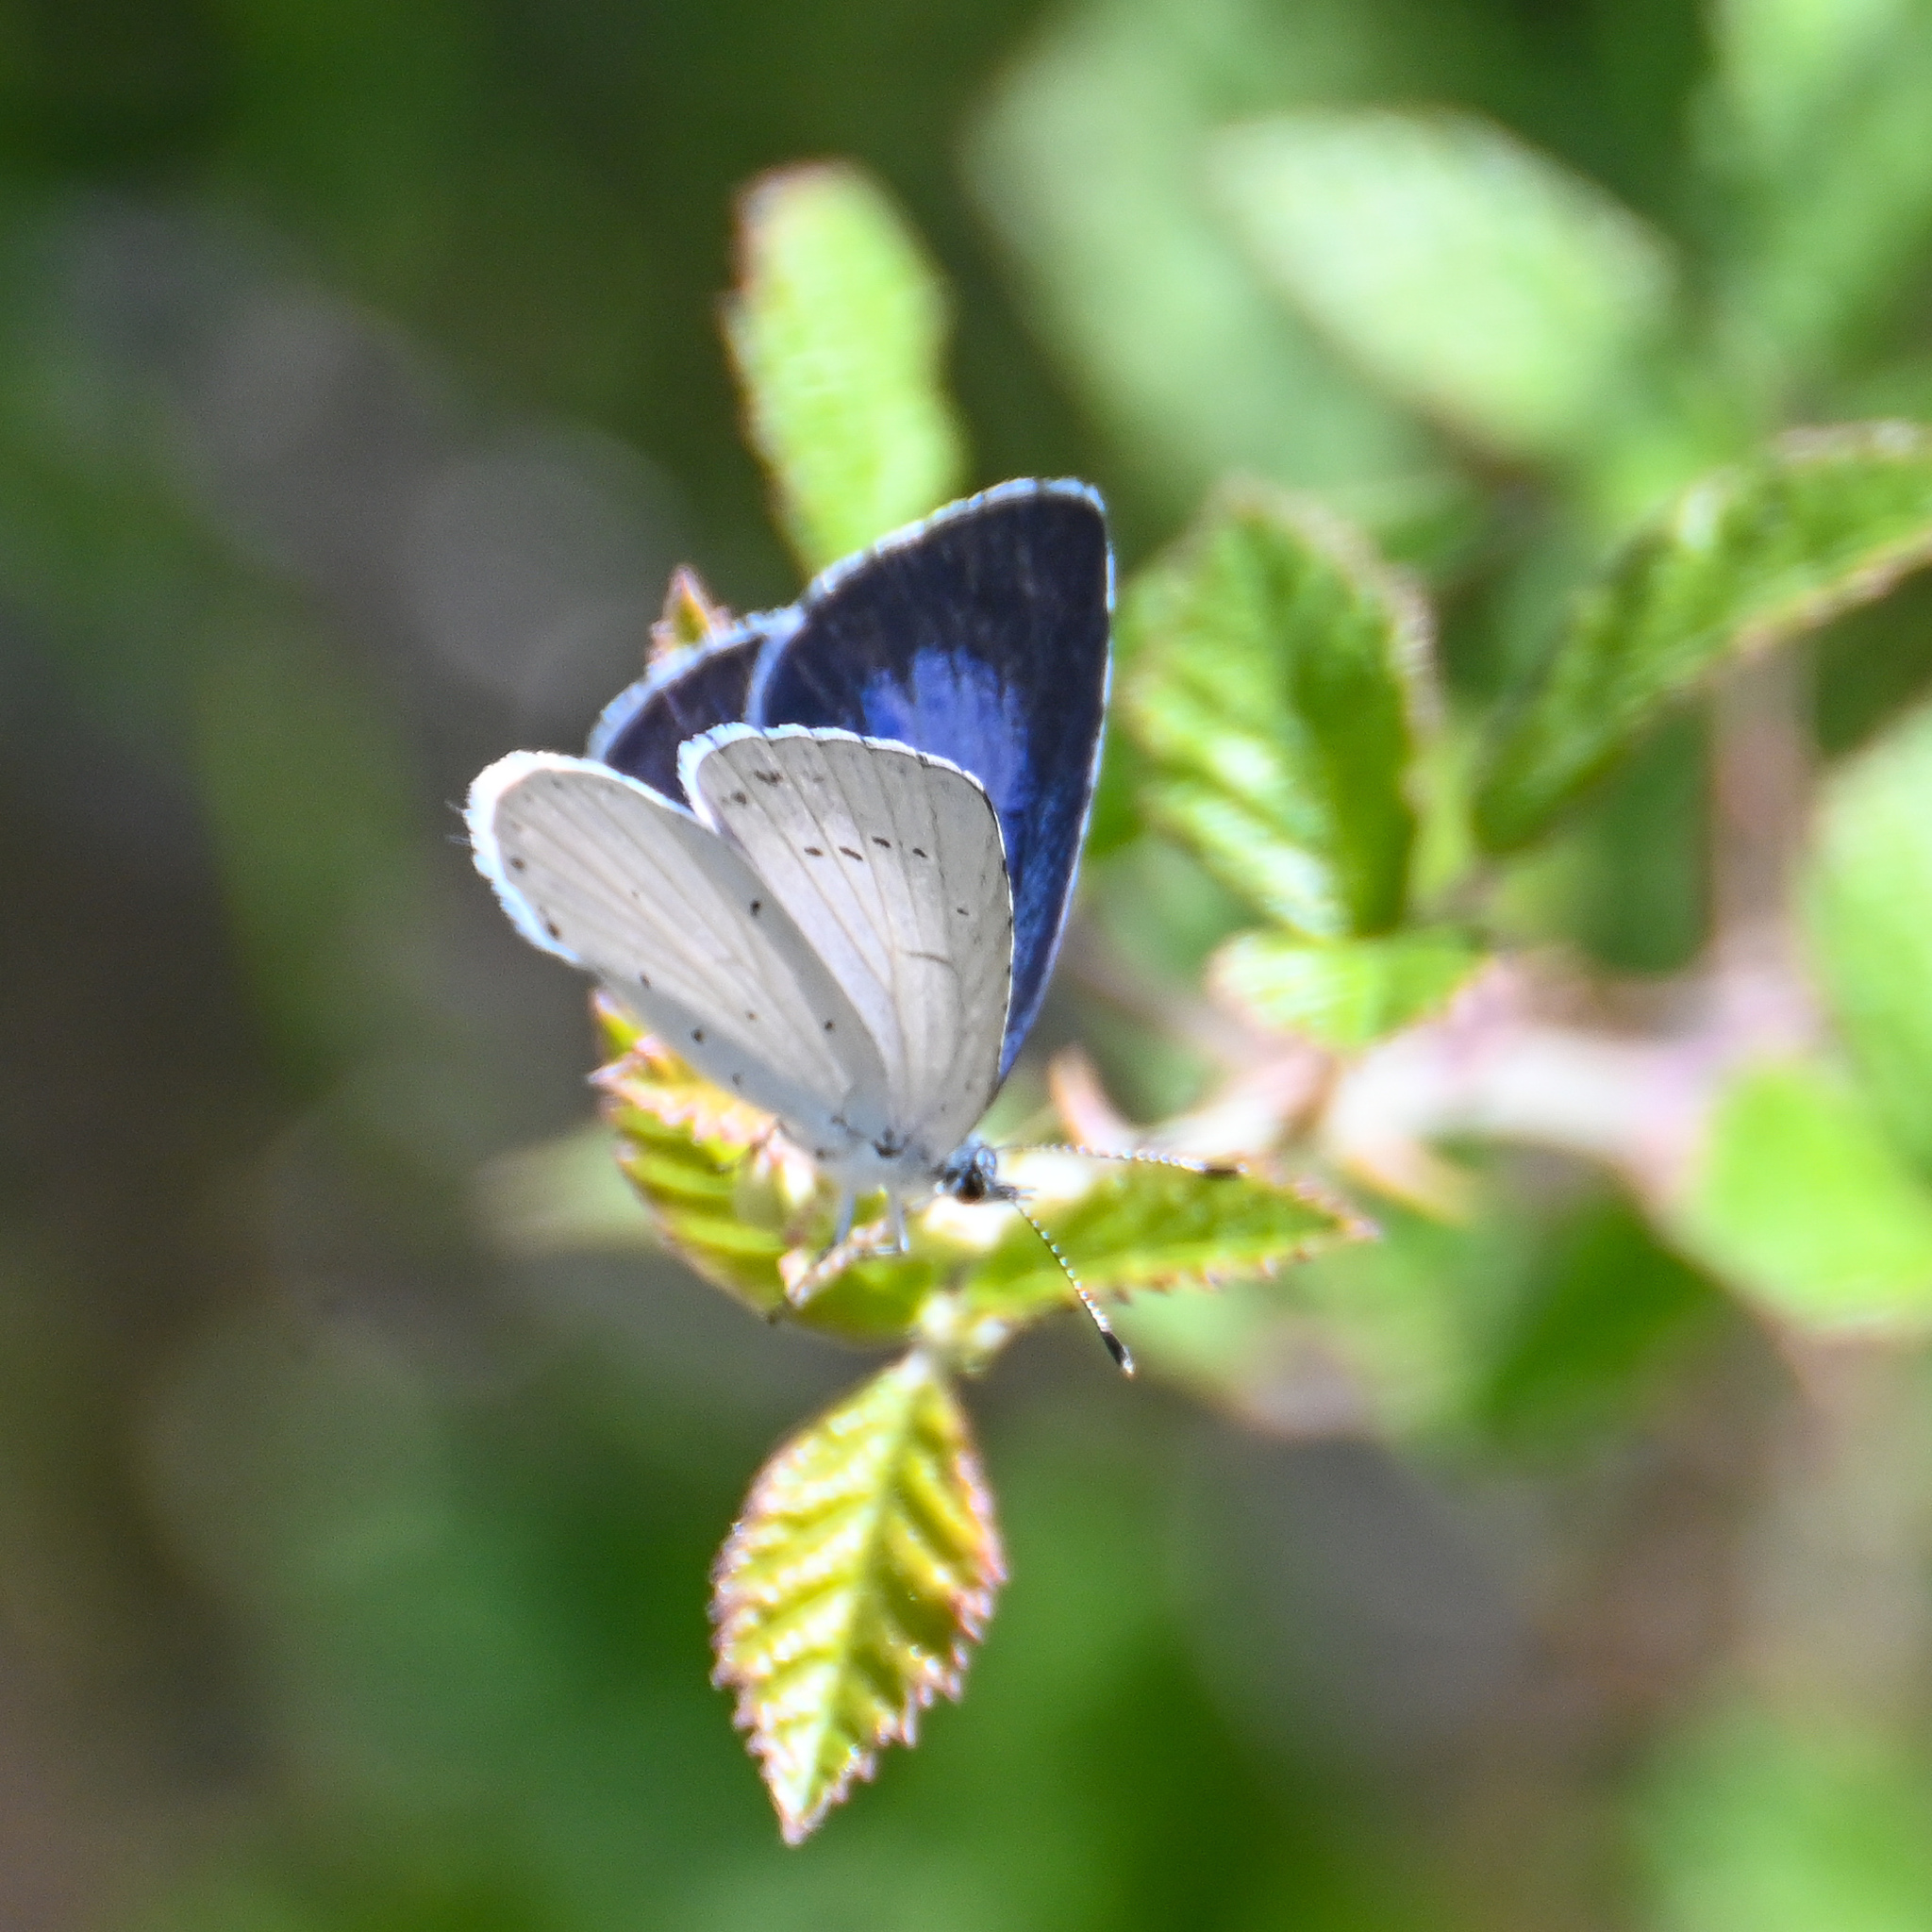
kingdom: Animalia
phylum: Arthropoda
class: Insecta
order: Lepidoptera
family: Lycaenidae
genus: Celastrina
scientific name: Celastrina argiolus
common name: Holly blue
